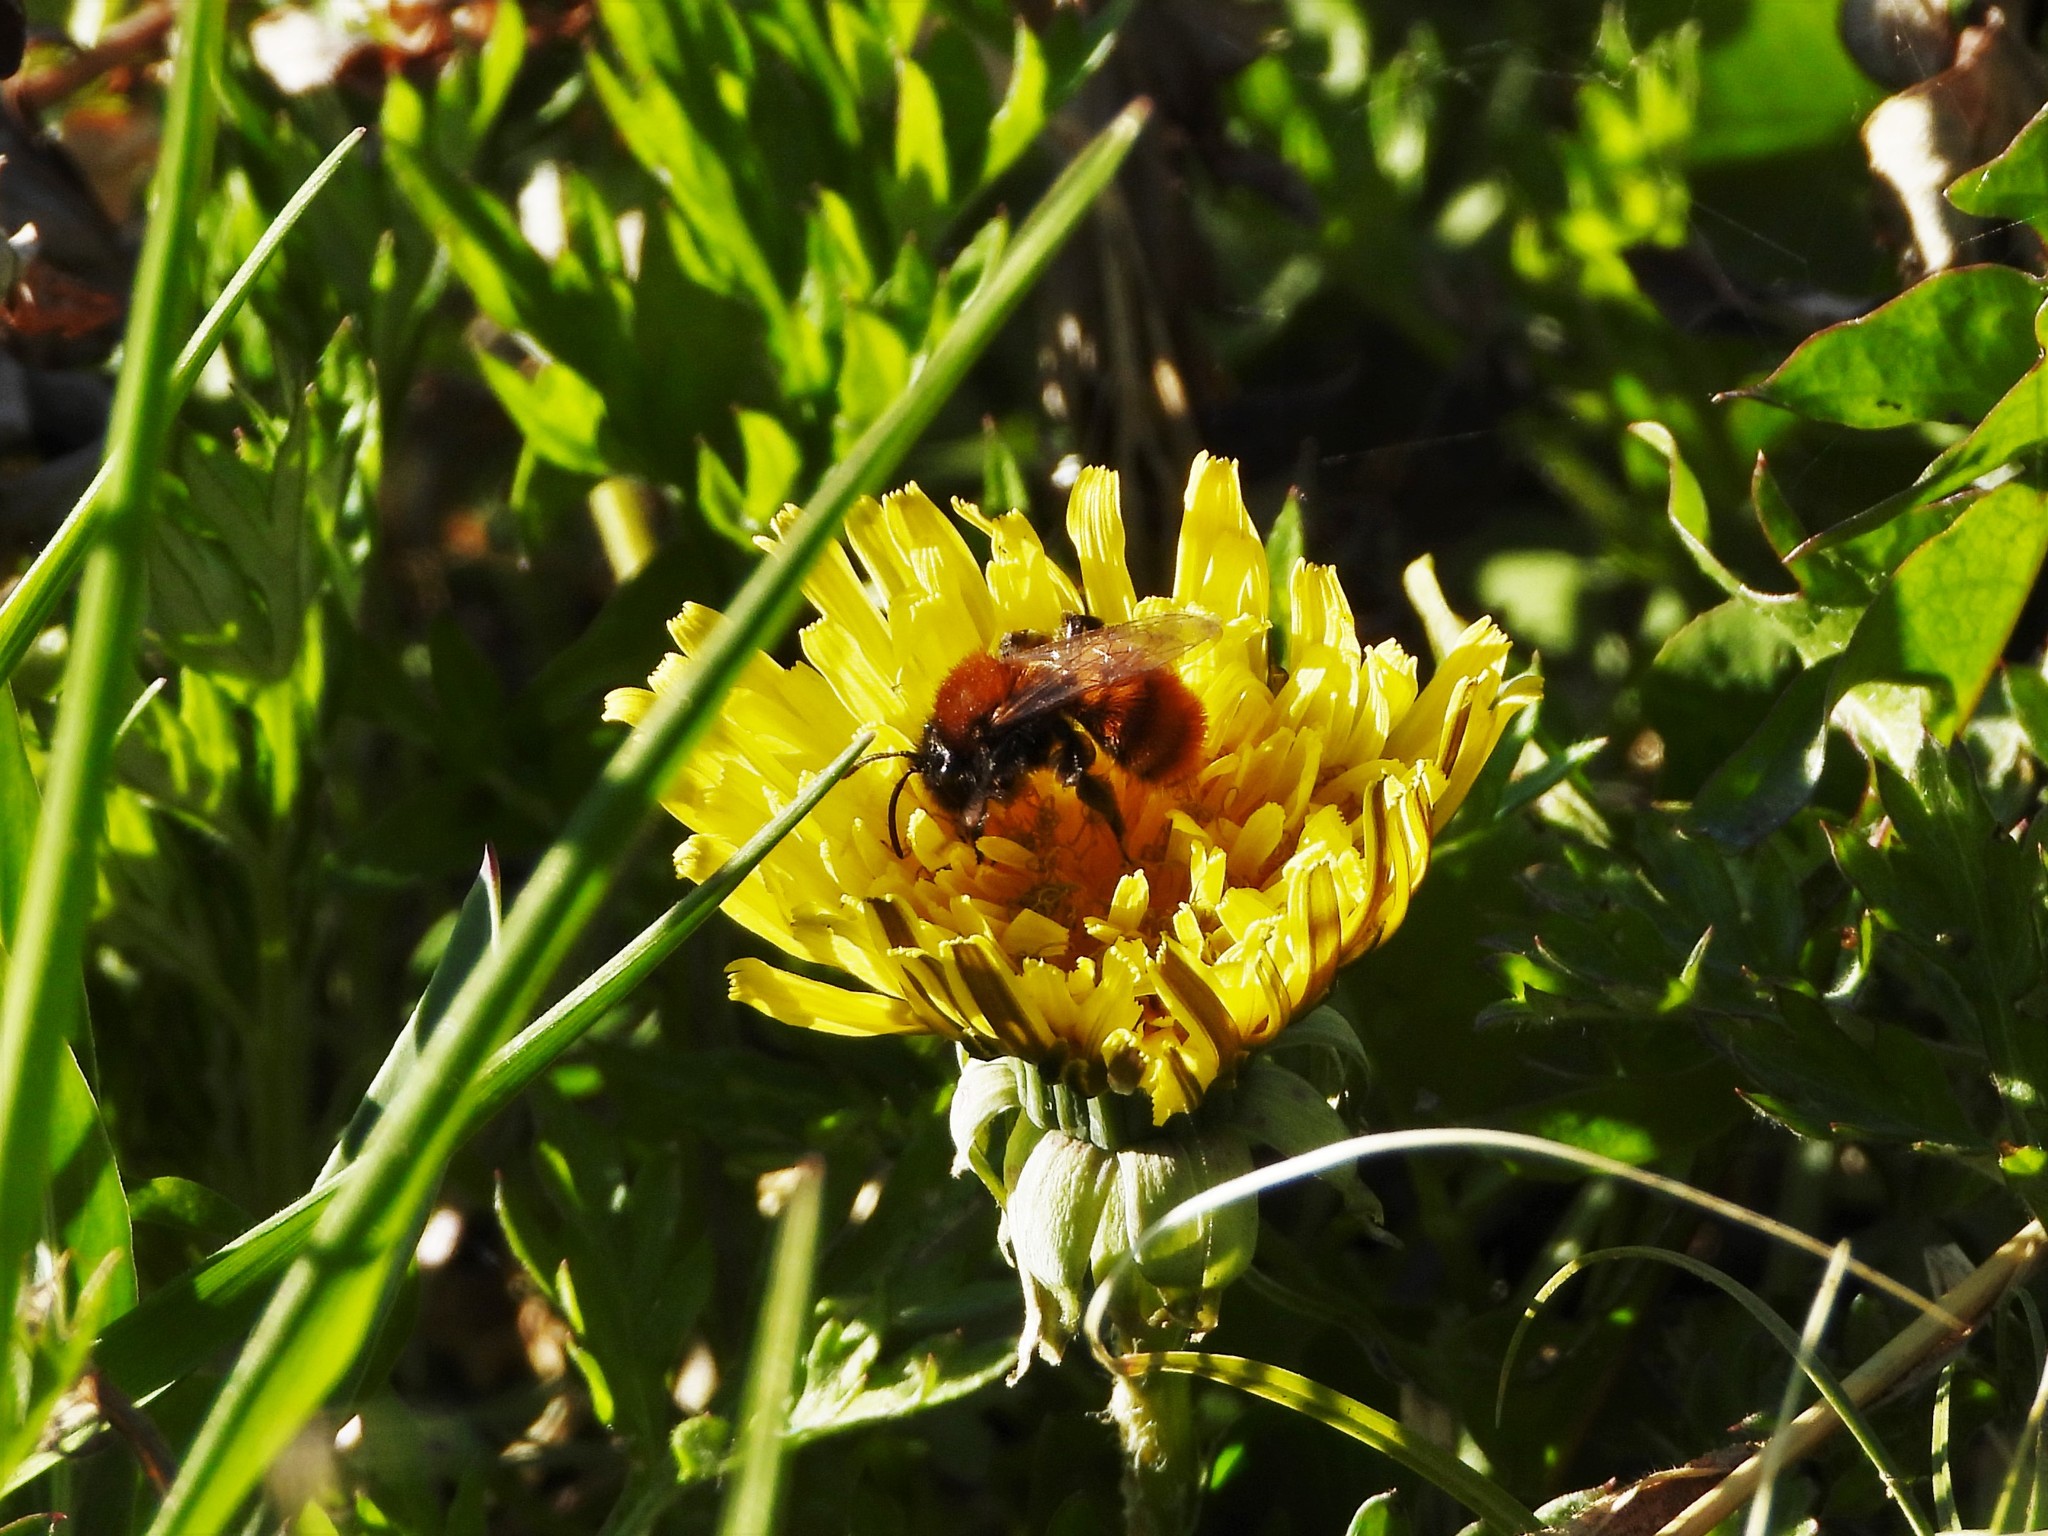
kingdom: Animalia
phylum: Arthropoda
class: Insecta
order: Hymenoptera
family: Andrenidae
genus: Andrena
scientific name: Andrena fulva
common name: Tawny mining bee
